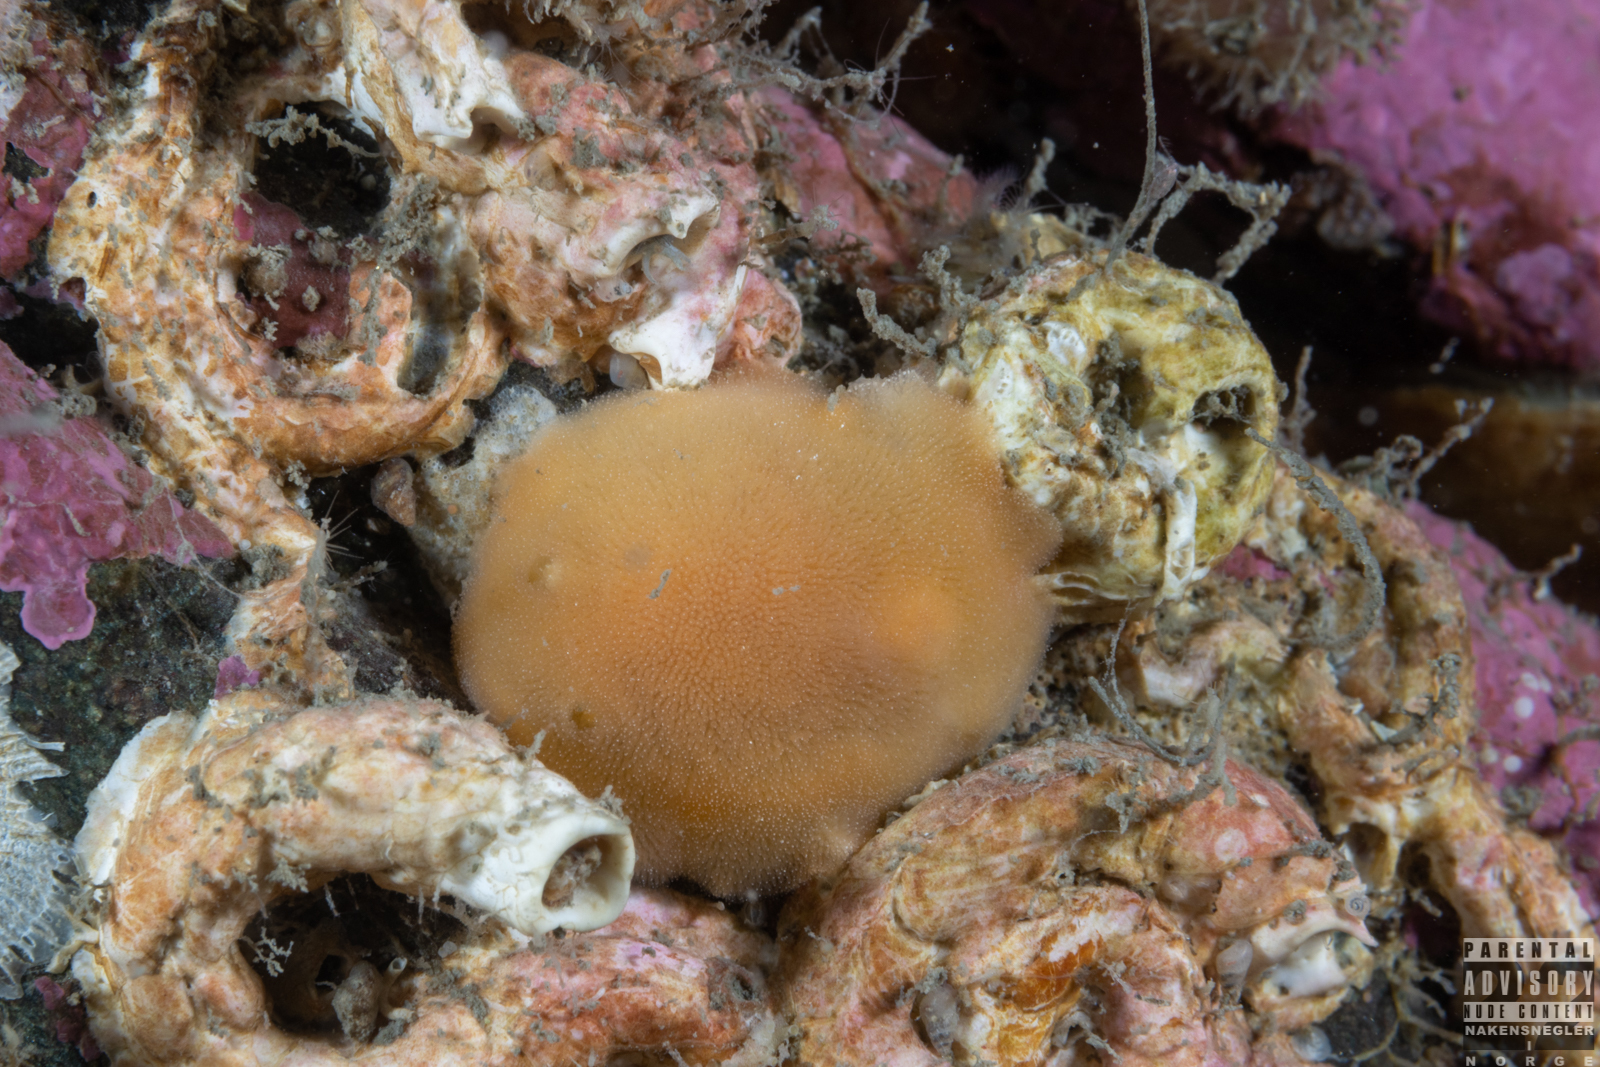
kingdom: Animalia
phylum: Mollusca
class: Gastropoda
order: Nudibranchia
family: Discodorididae
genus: Jorunna
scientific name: Jorunna tomentosa
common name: Grey sea slug
